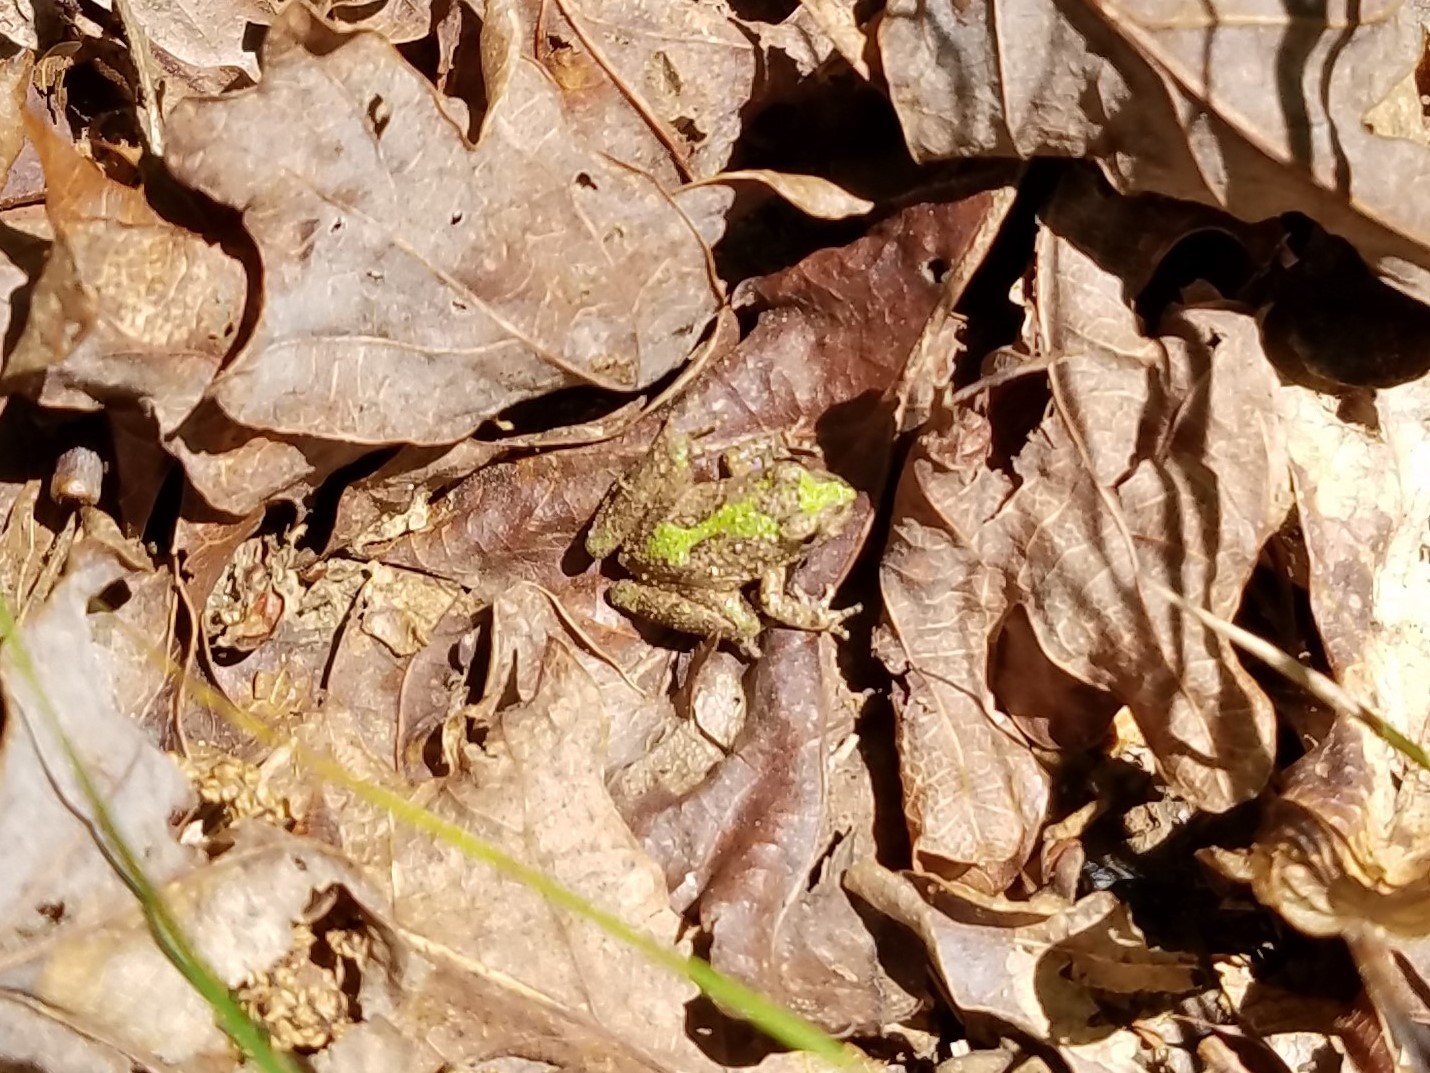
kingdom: Animalia
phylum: Chordata
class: Amphibia
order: Anura
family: Hylidae
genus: Acris
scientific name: Acris crepitans
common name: Northern cricket frog
